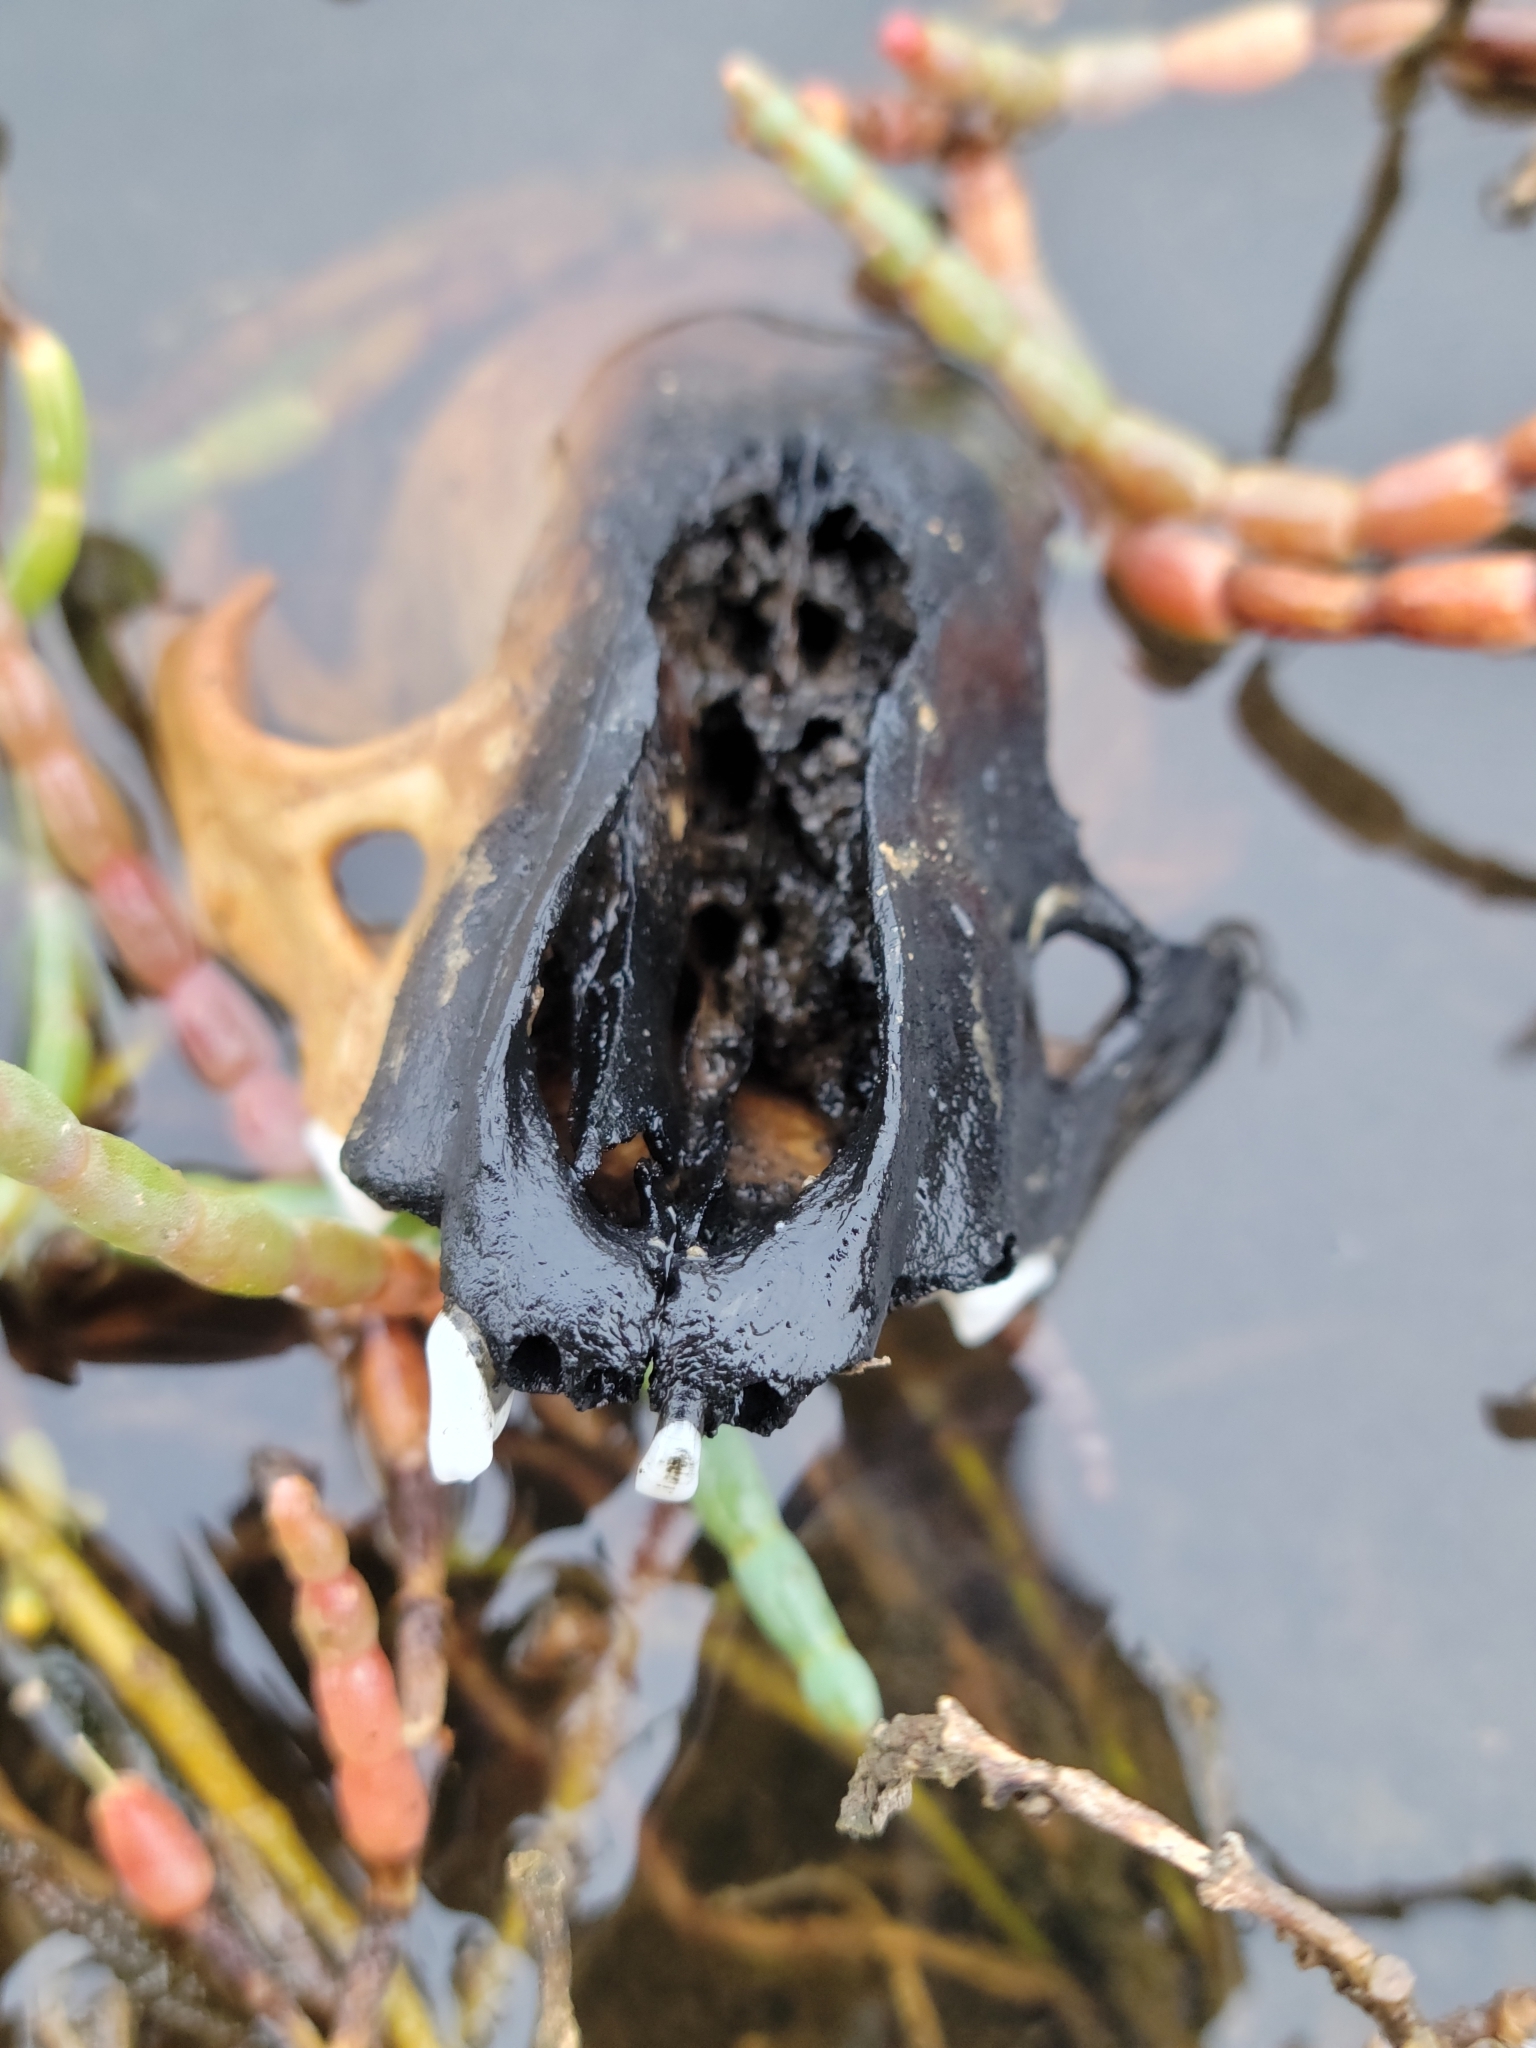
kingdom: Animalia
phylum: Chordata
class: Mammalia
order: Carnivora
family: Procyonidae
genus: Procyon
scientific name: Procyon lotor
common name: Raccoon
